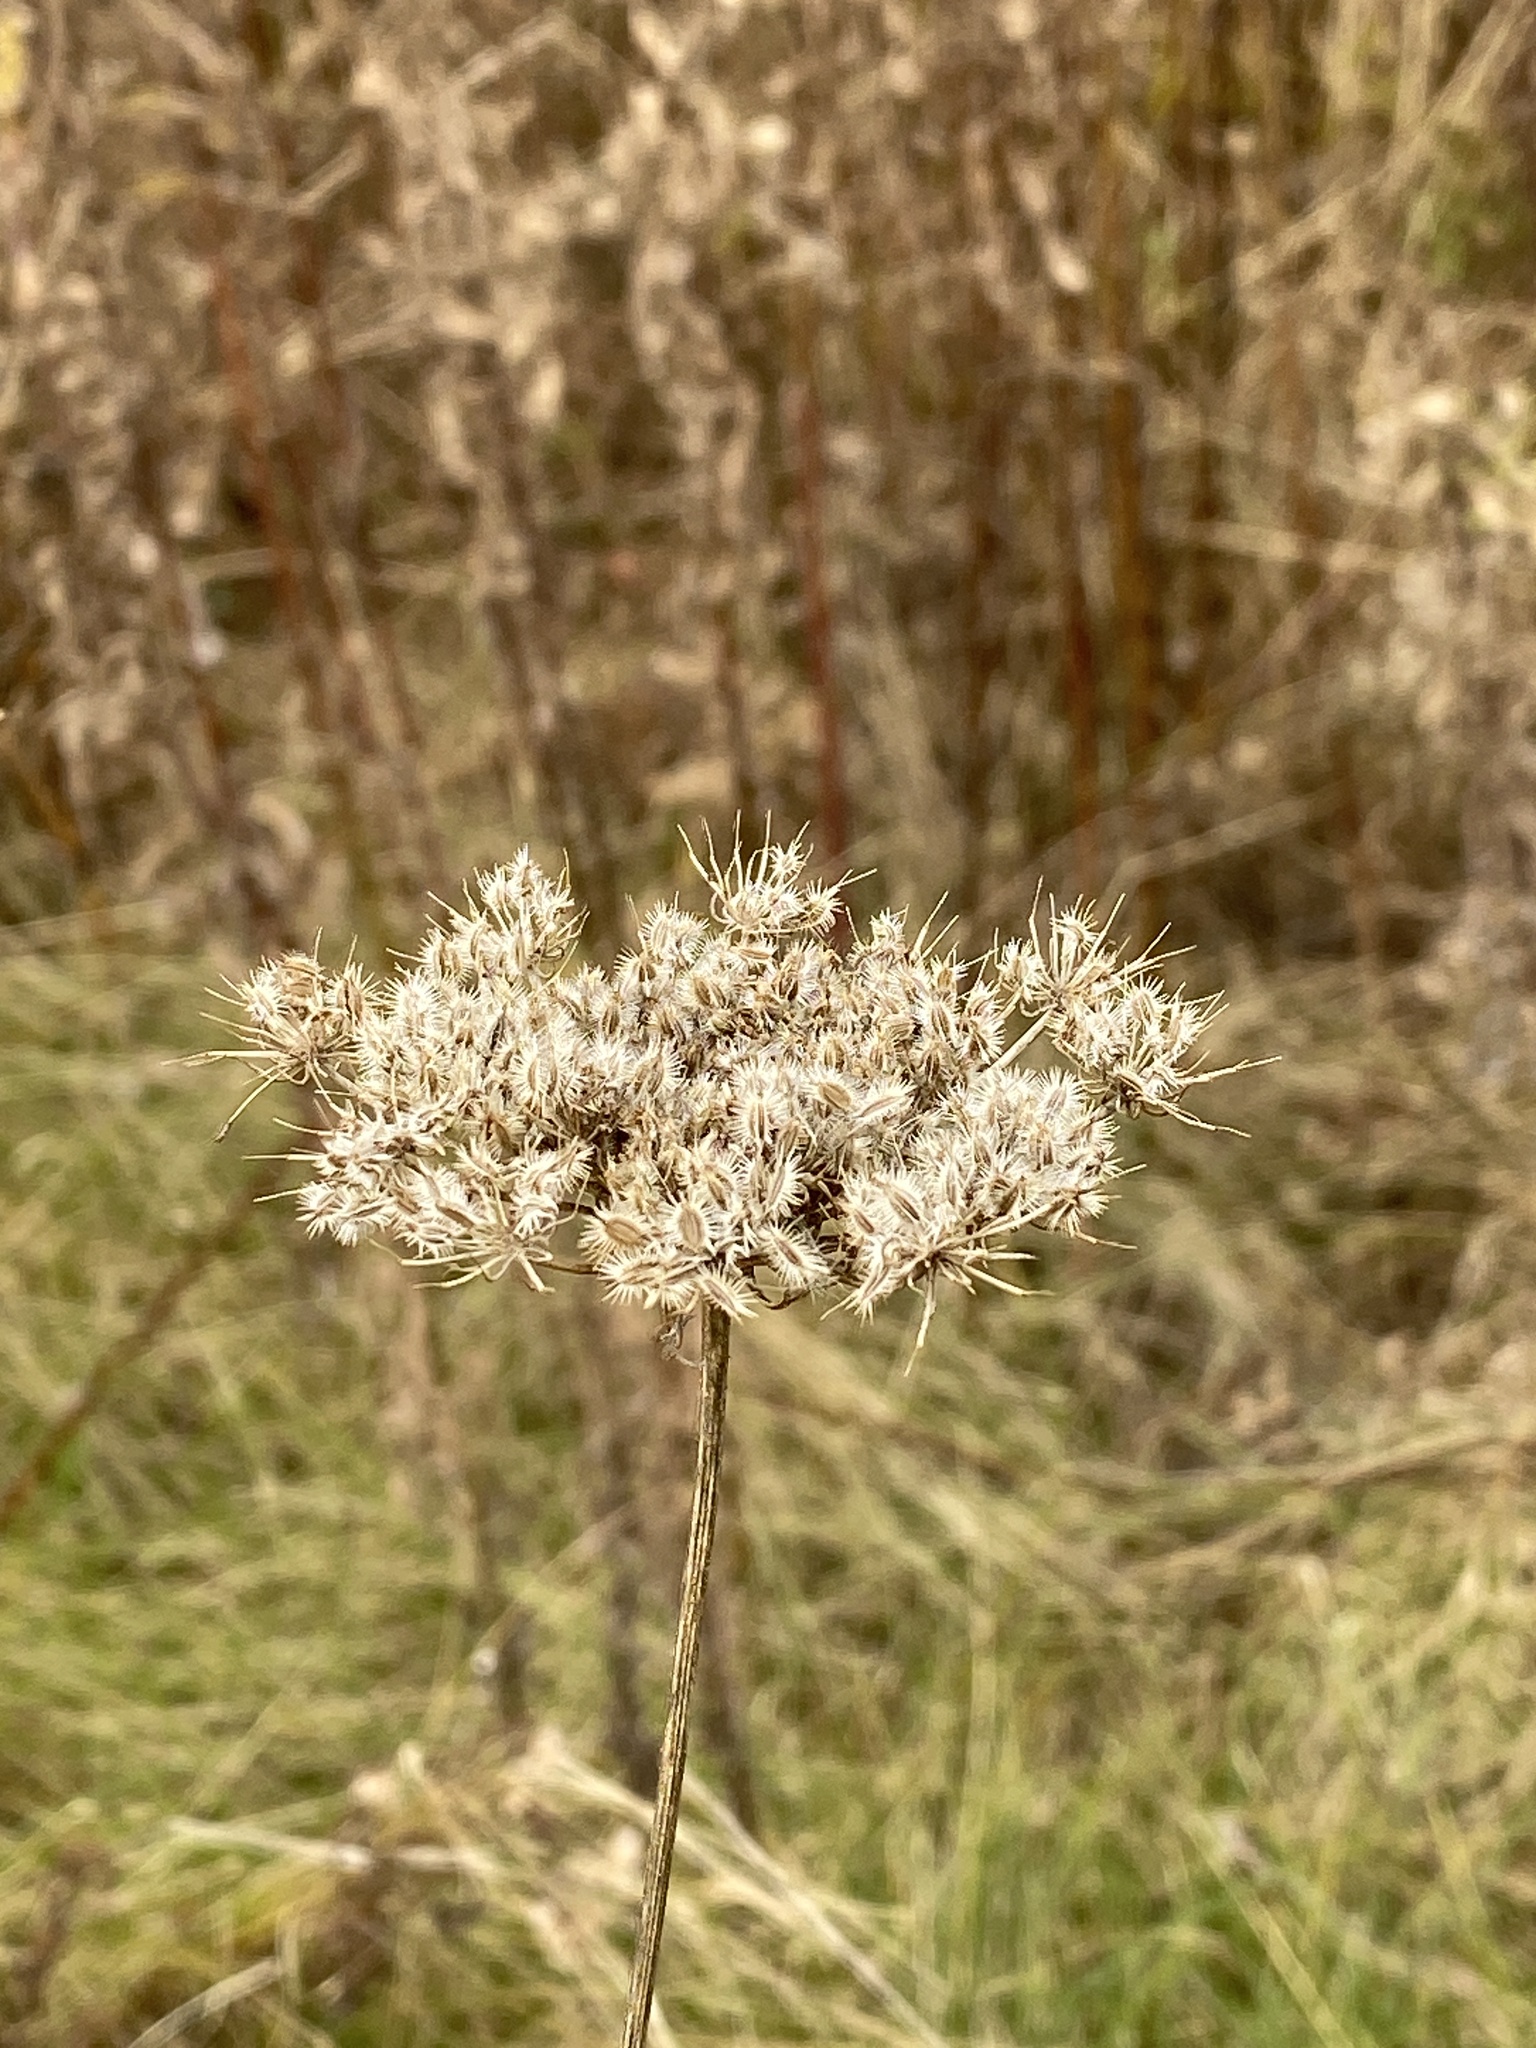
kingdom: Plantae
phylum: Tracheophyta
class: Magnoliopsida
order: Apiales
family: Apiaceae
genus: Daucus
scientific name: Daucus carota
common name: Wild carrot
